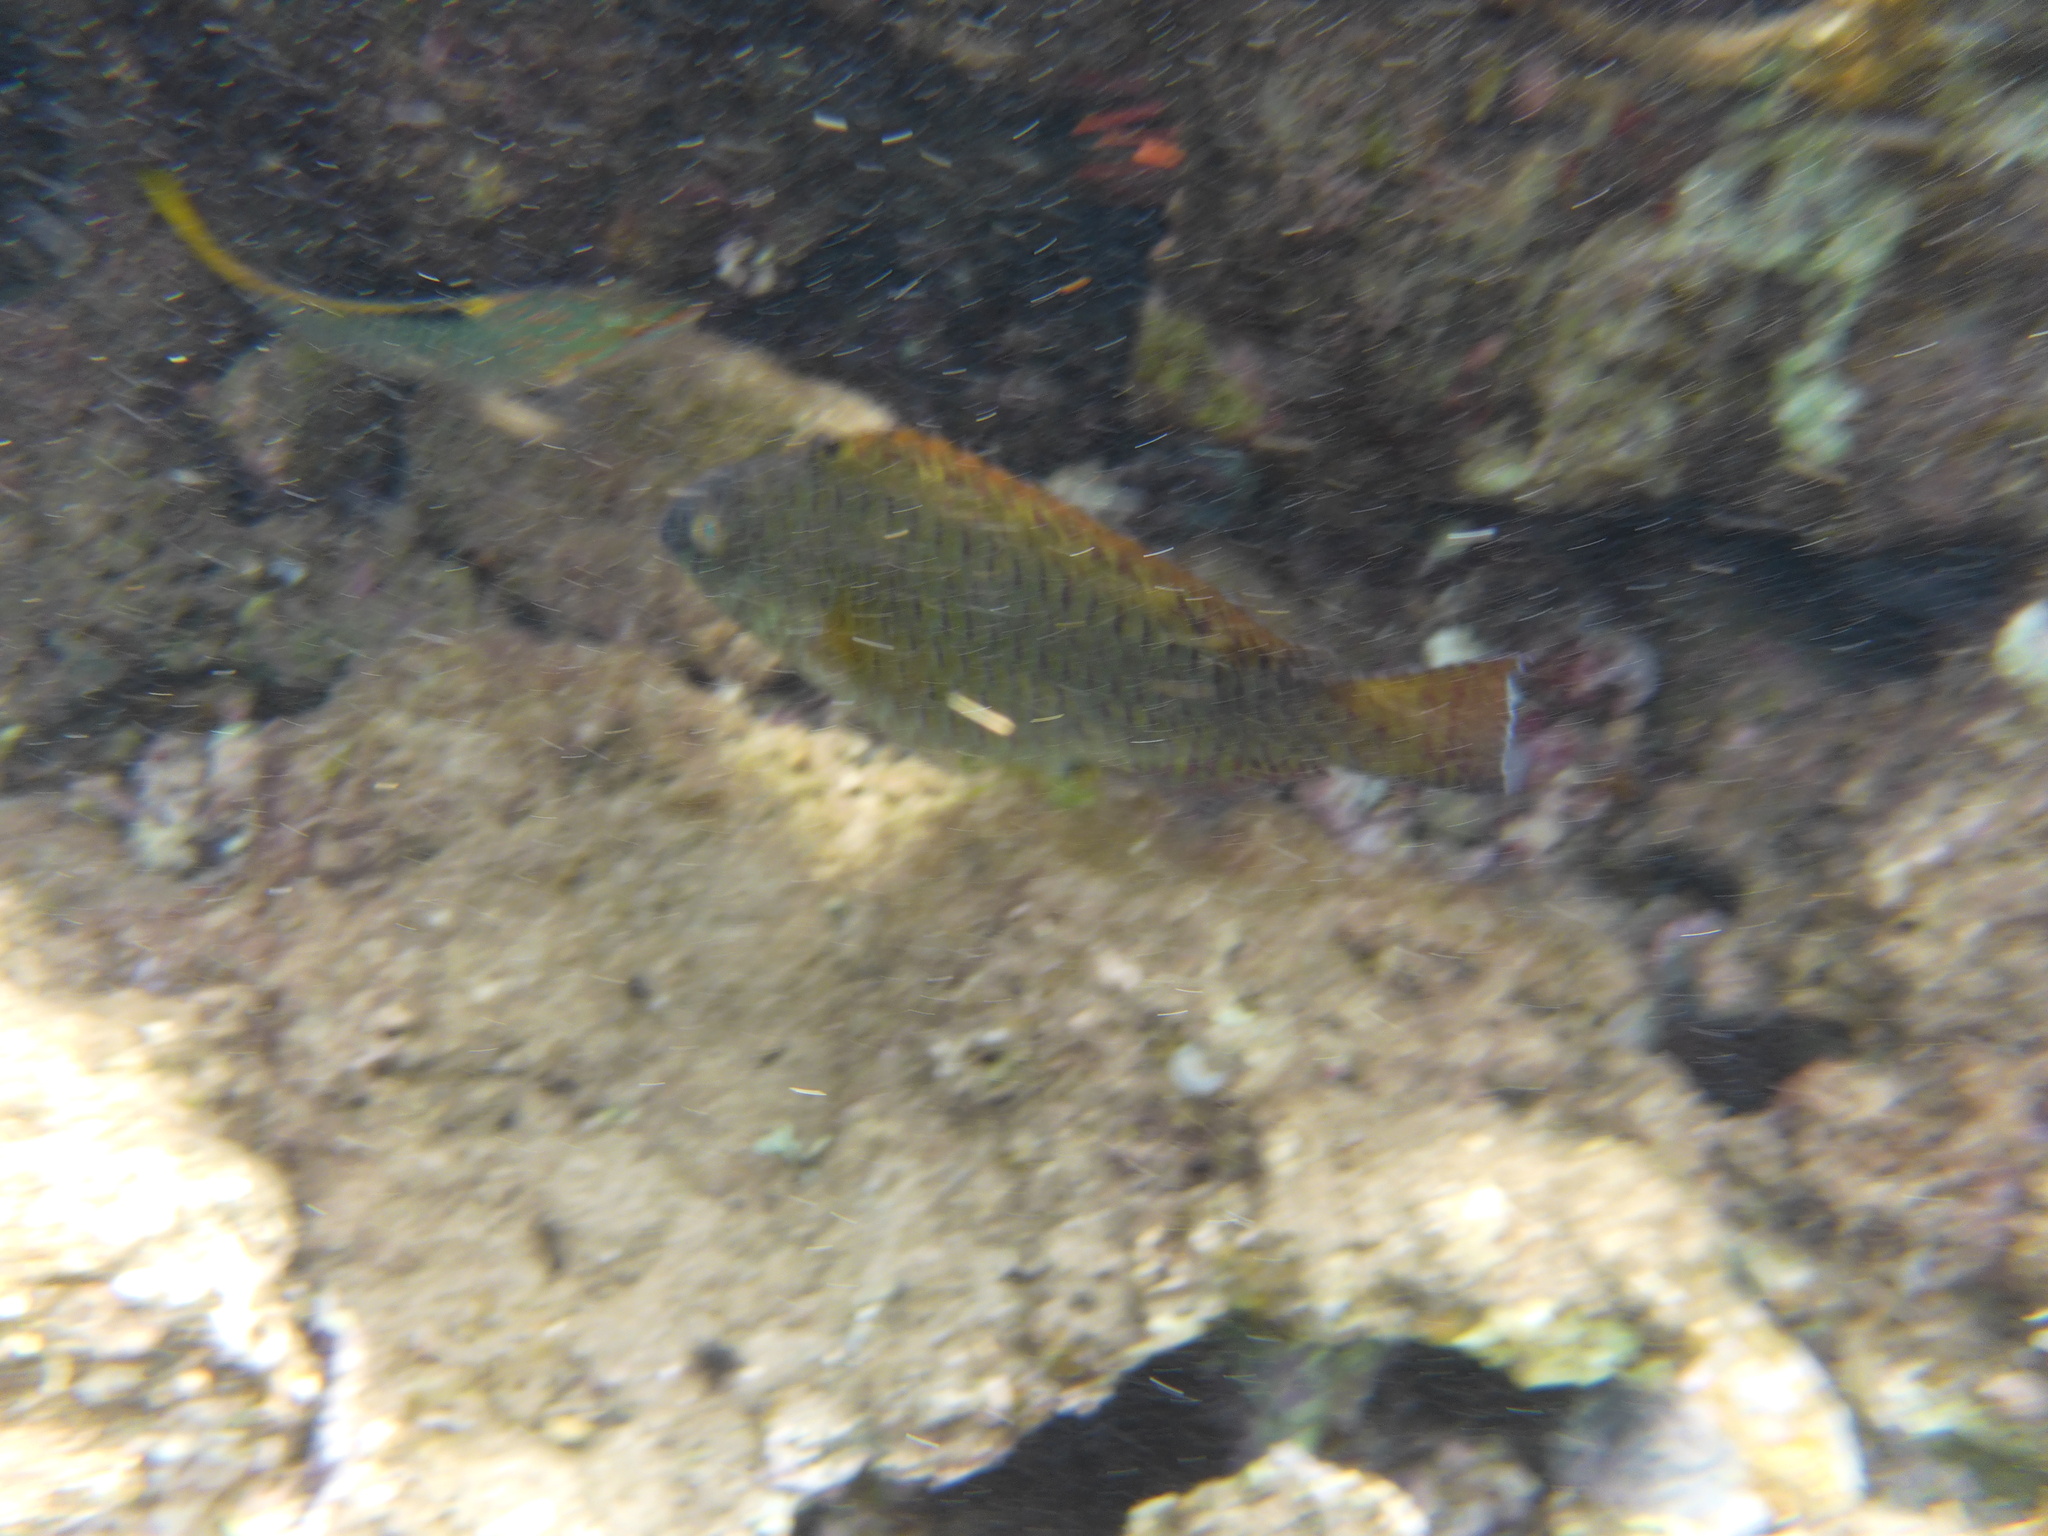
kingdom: Animalia
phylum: Chordata
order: Perciformes
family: Scaridae
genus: Calotomus
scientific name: Calotomus viridescens
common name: Dotted parrotfish
